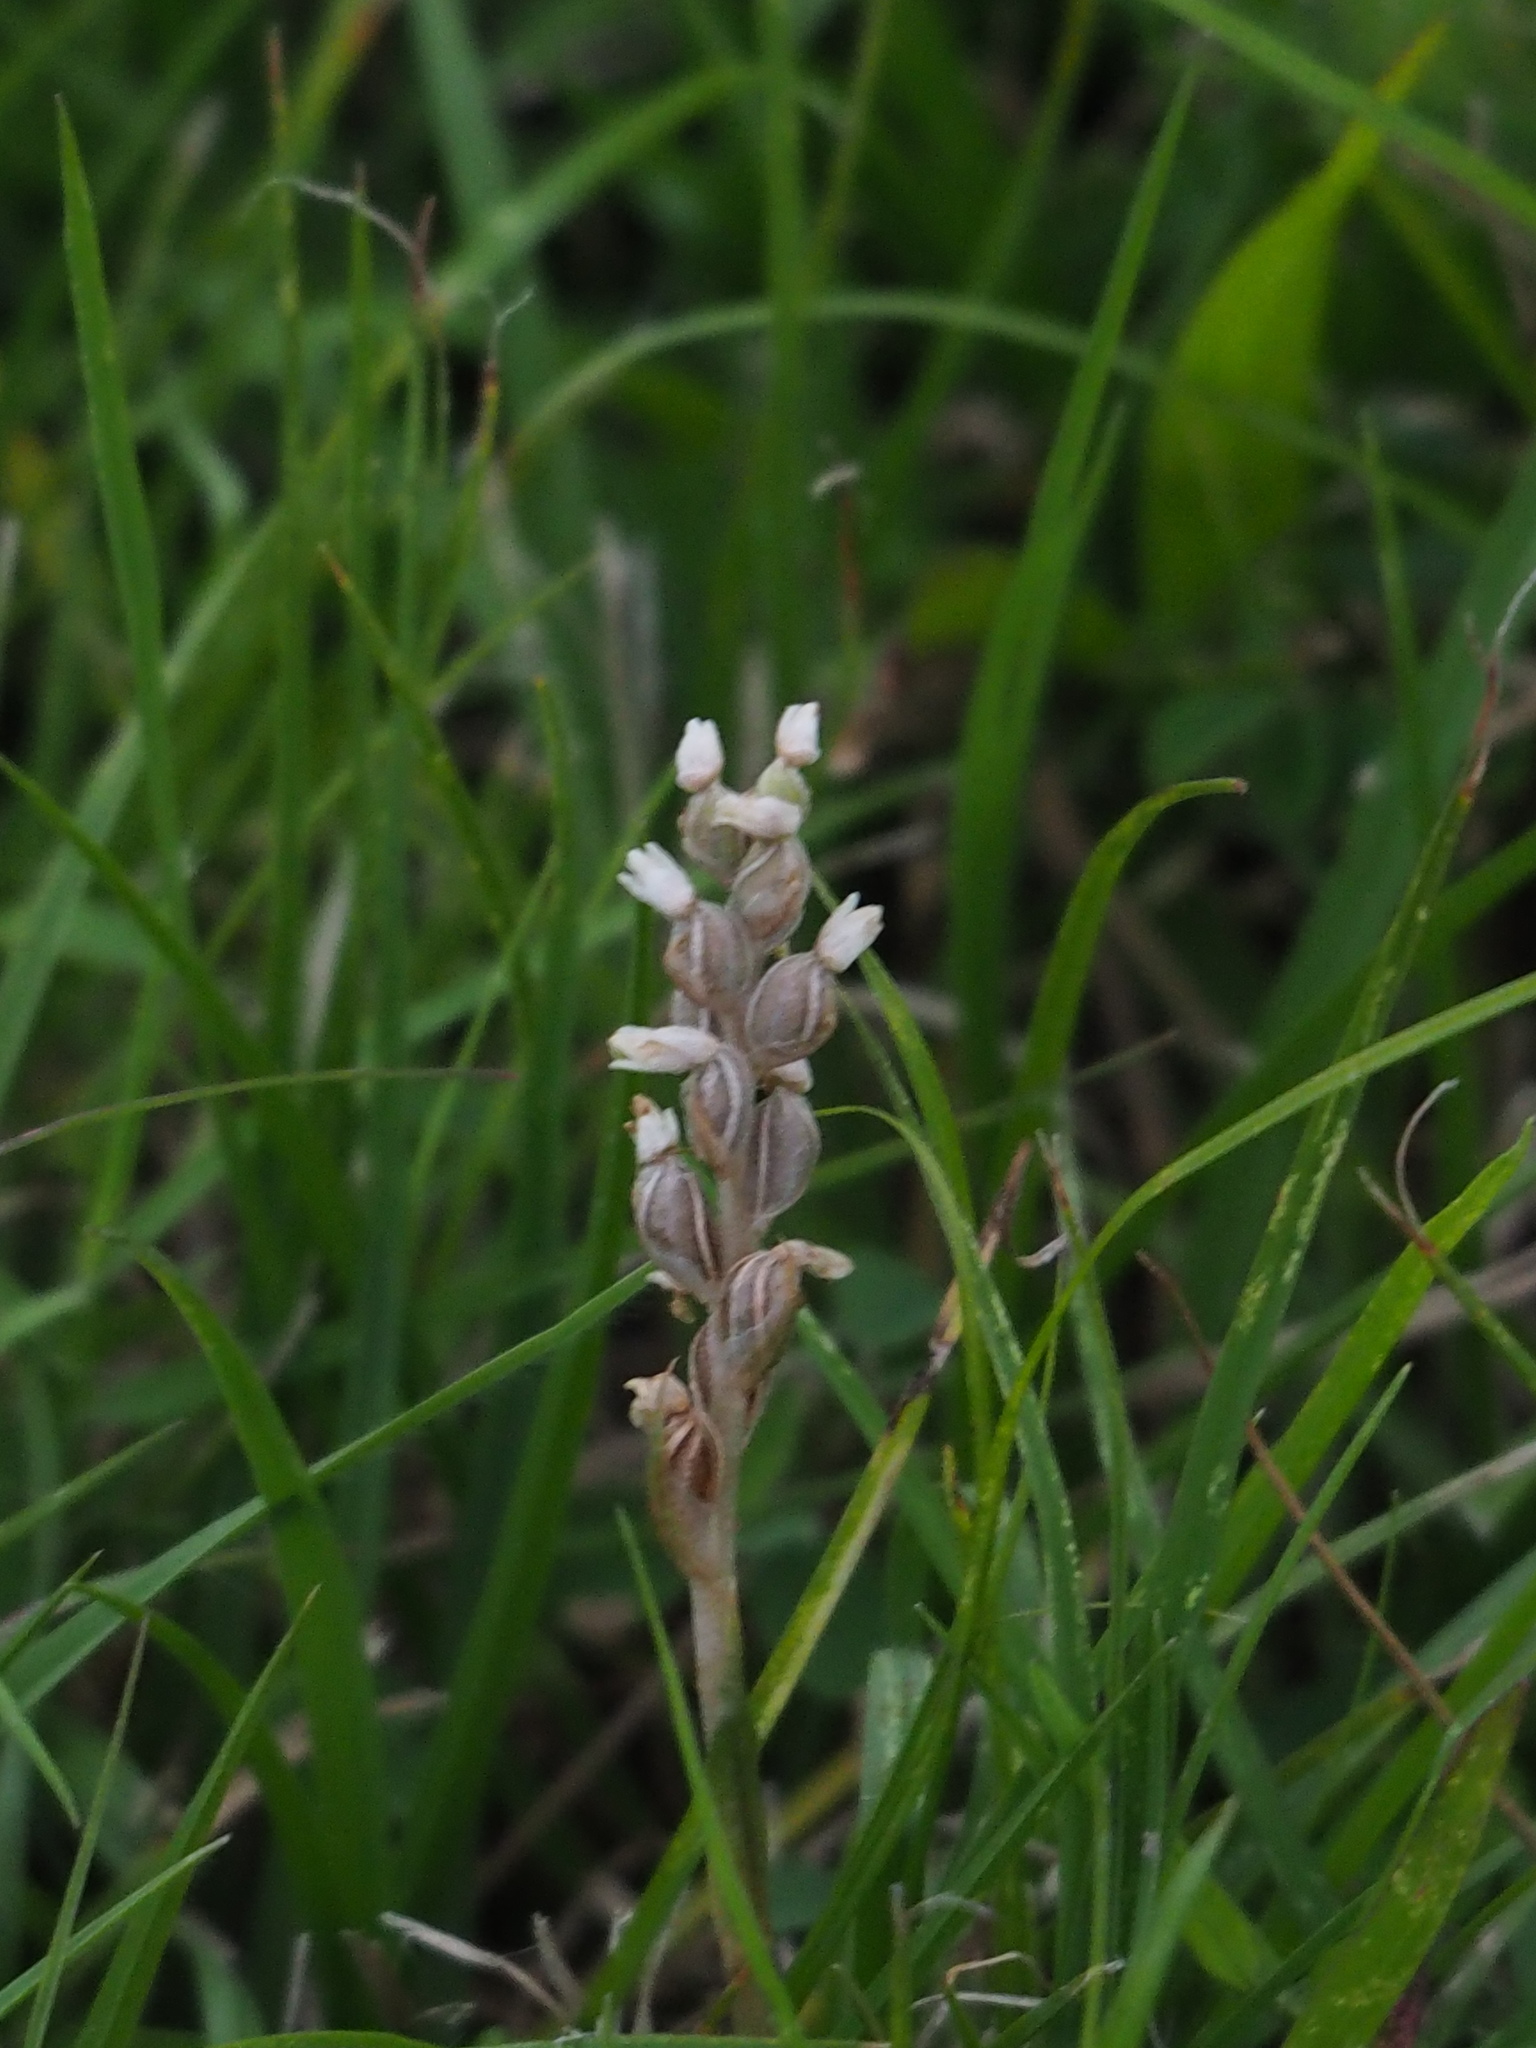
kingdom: Plantae
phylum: Tracheophyta
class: Liliopsida
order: Asparagales
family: Orchidaceae
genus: Zeuxine
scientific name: Zeuxine strateumatica
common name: Soldier's orchid
